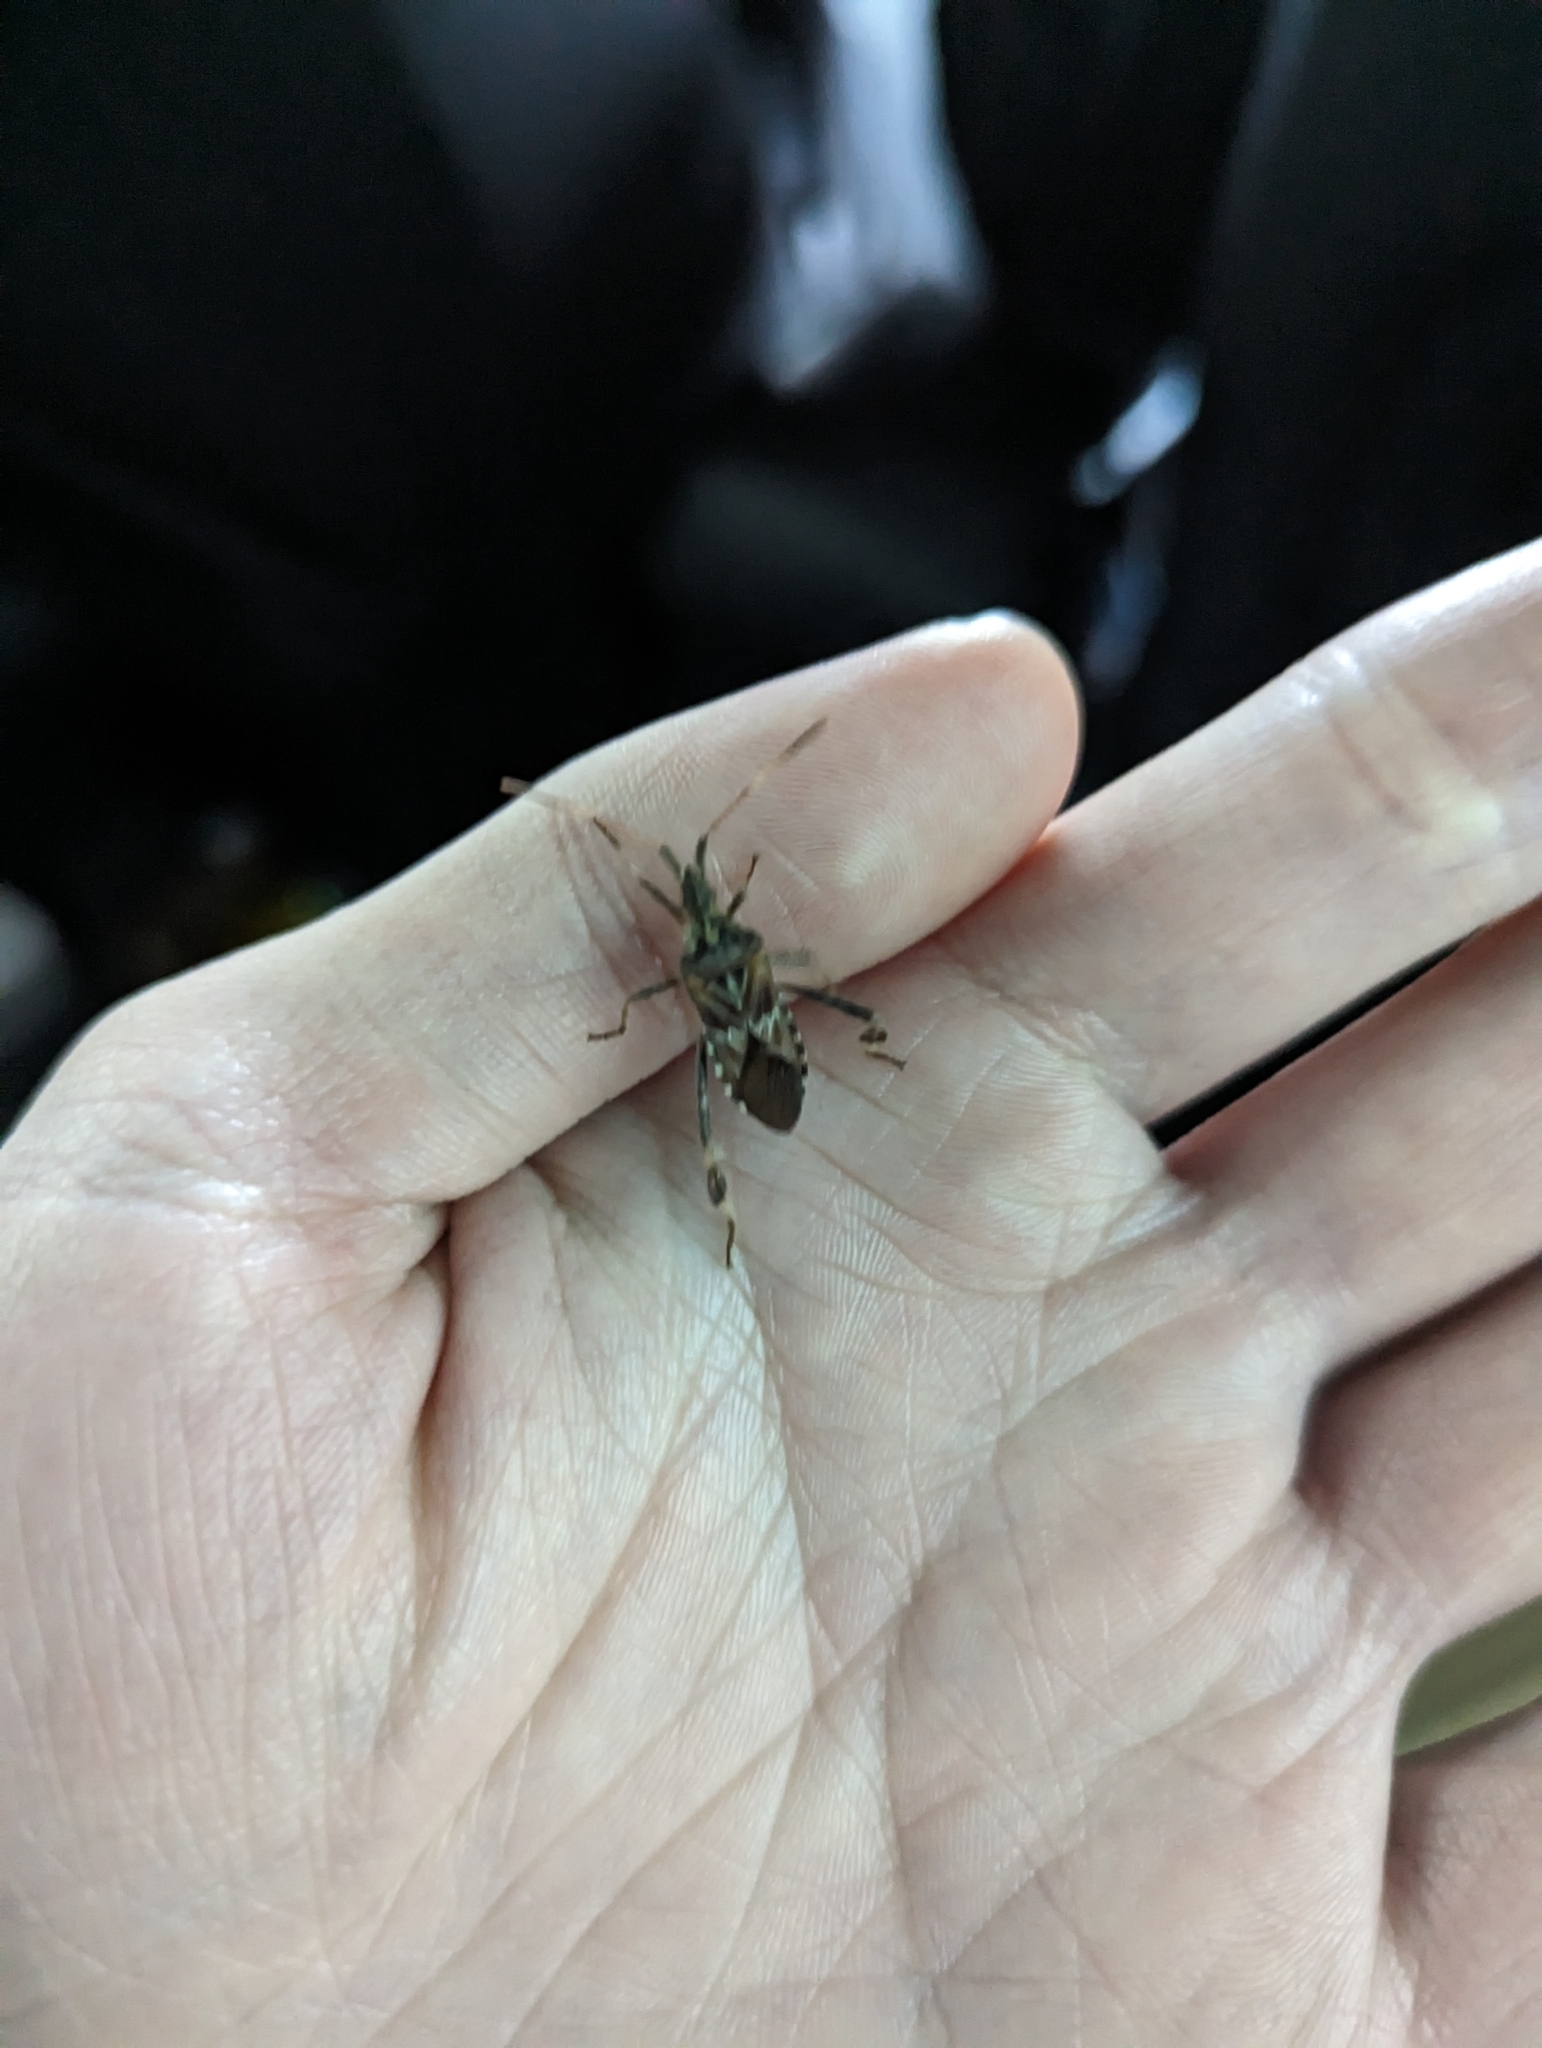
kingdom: Animalia
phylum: Arthropoda
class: Insecta
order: Hemiptera
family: Coreidae
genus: Leptoglossus
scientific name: Leptoglossus occidentalis
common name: Western conifer-seed bug
